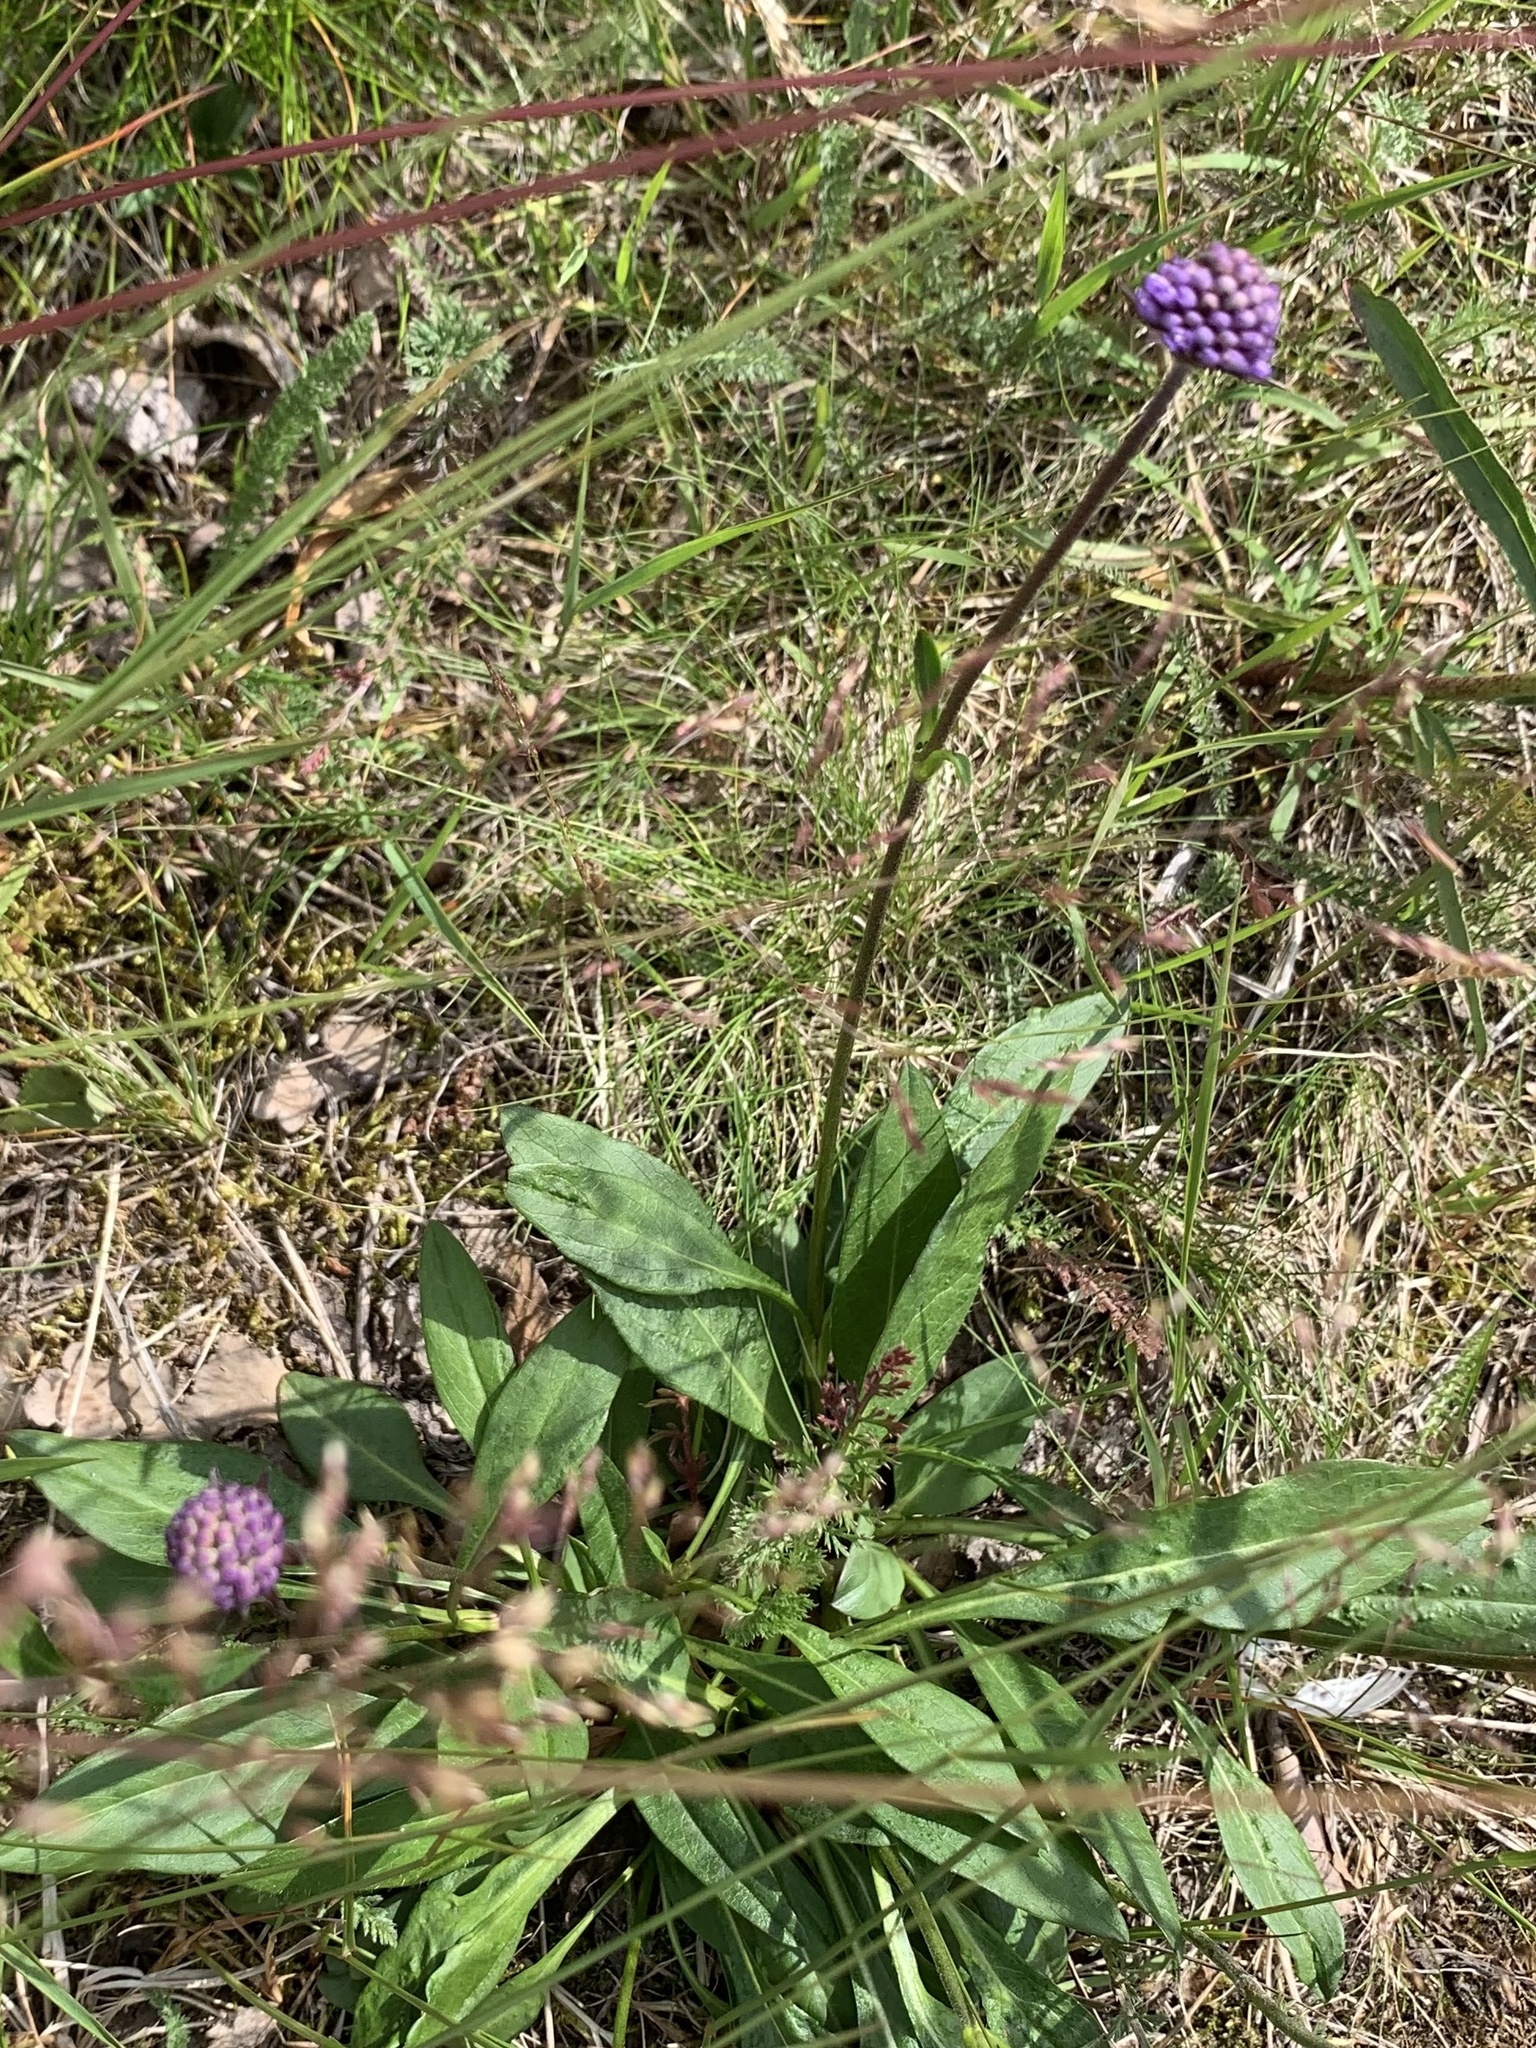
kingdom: Plantae
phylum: Tracheophyta
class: Magnoliopsida
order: Dipsacales
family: Caprifoliaceae
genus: Succisa
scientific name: Succisa pratensis
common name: Devil's-bit
